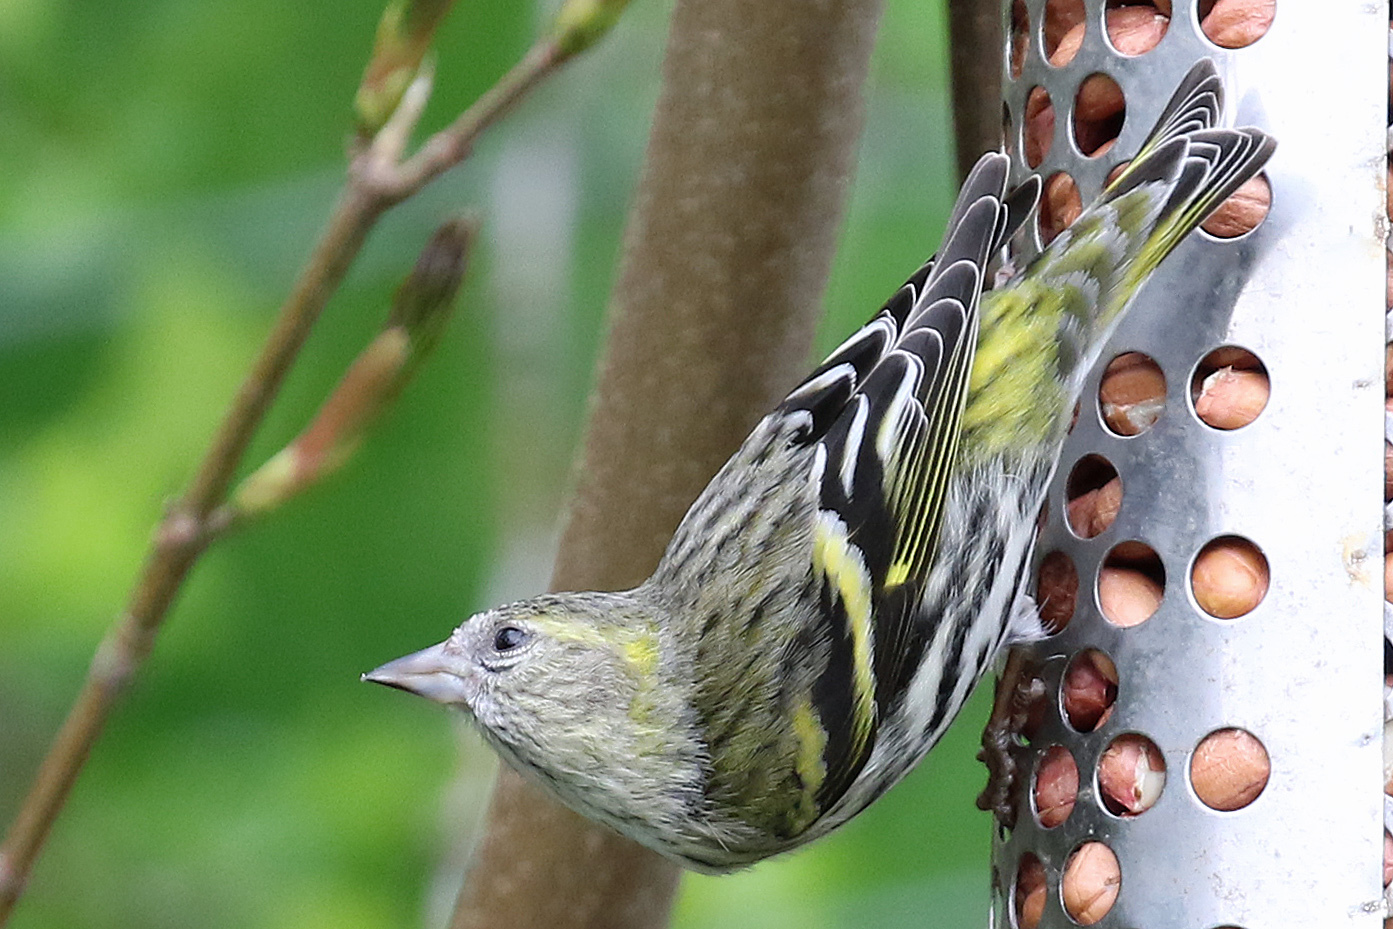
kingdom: Animalia
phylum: Chordata
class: Aves
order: Passeriformes
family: Fringillidae
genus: Spinus
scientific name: Spinus spinus
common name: Eurasian siskin
